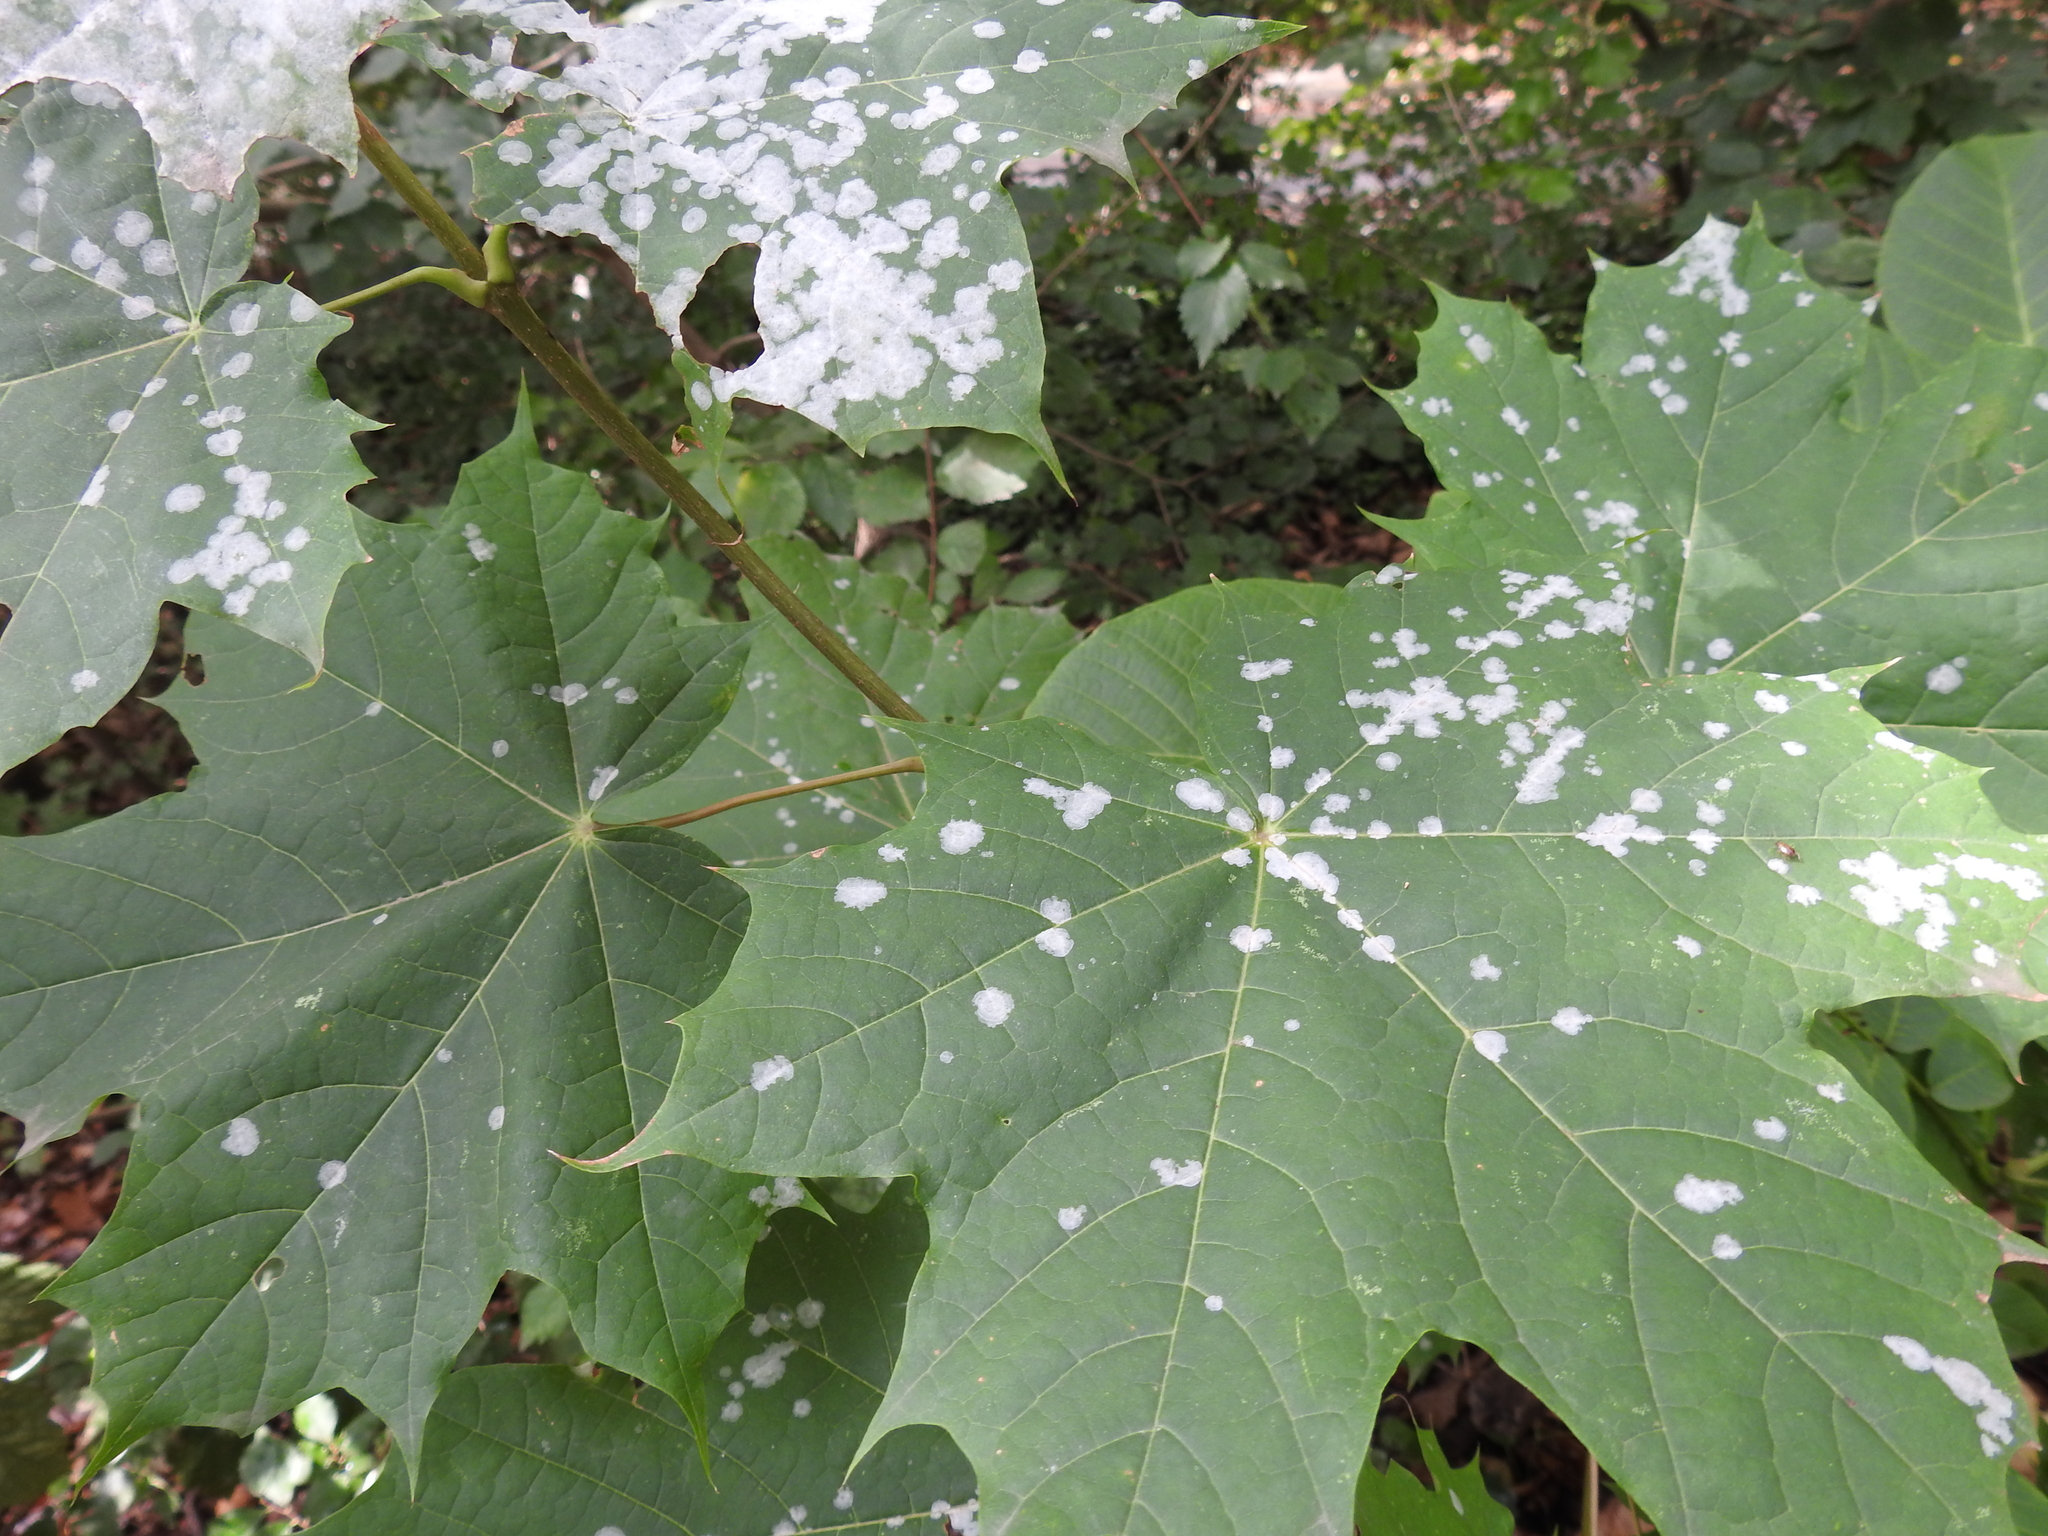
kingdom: Fungi
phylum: Ascomycota
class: Leotiomycetes
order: Helotiales
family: Erysiphaceae
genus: Sawadaea
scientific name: Sawadaea tulasnei
